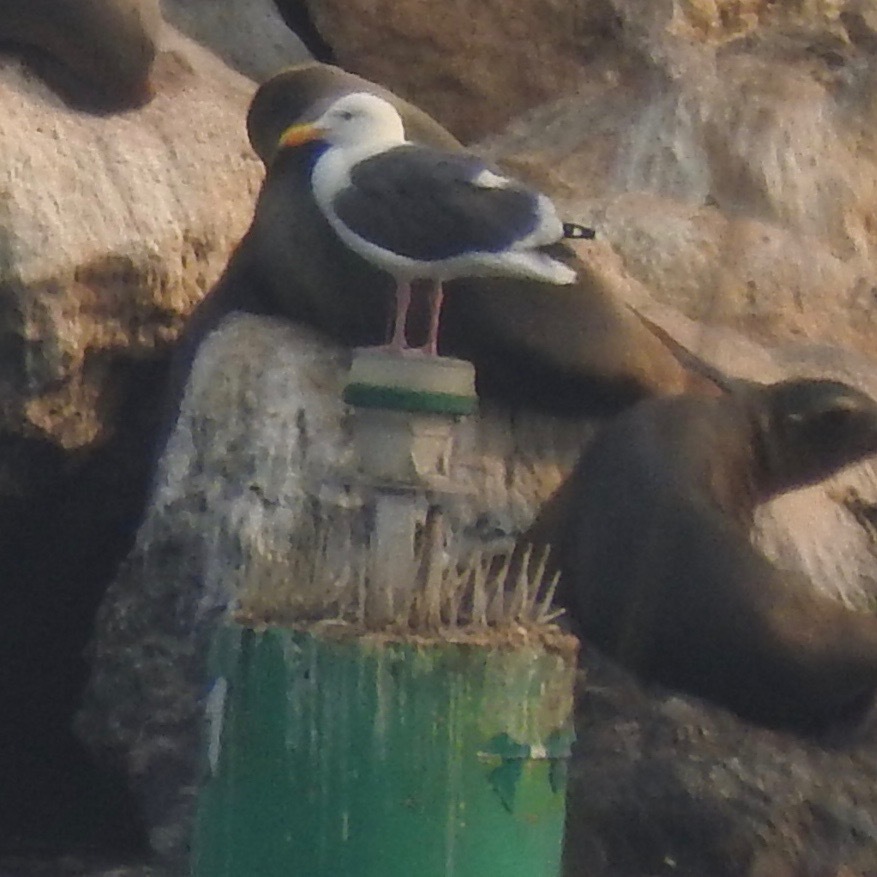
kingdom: Animalia
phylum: Chordata
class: Aves
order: Charadriiformes
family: Laridae
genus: Larus
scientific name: Larus occidentalis
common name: Western gull
